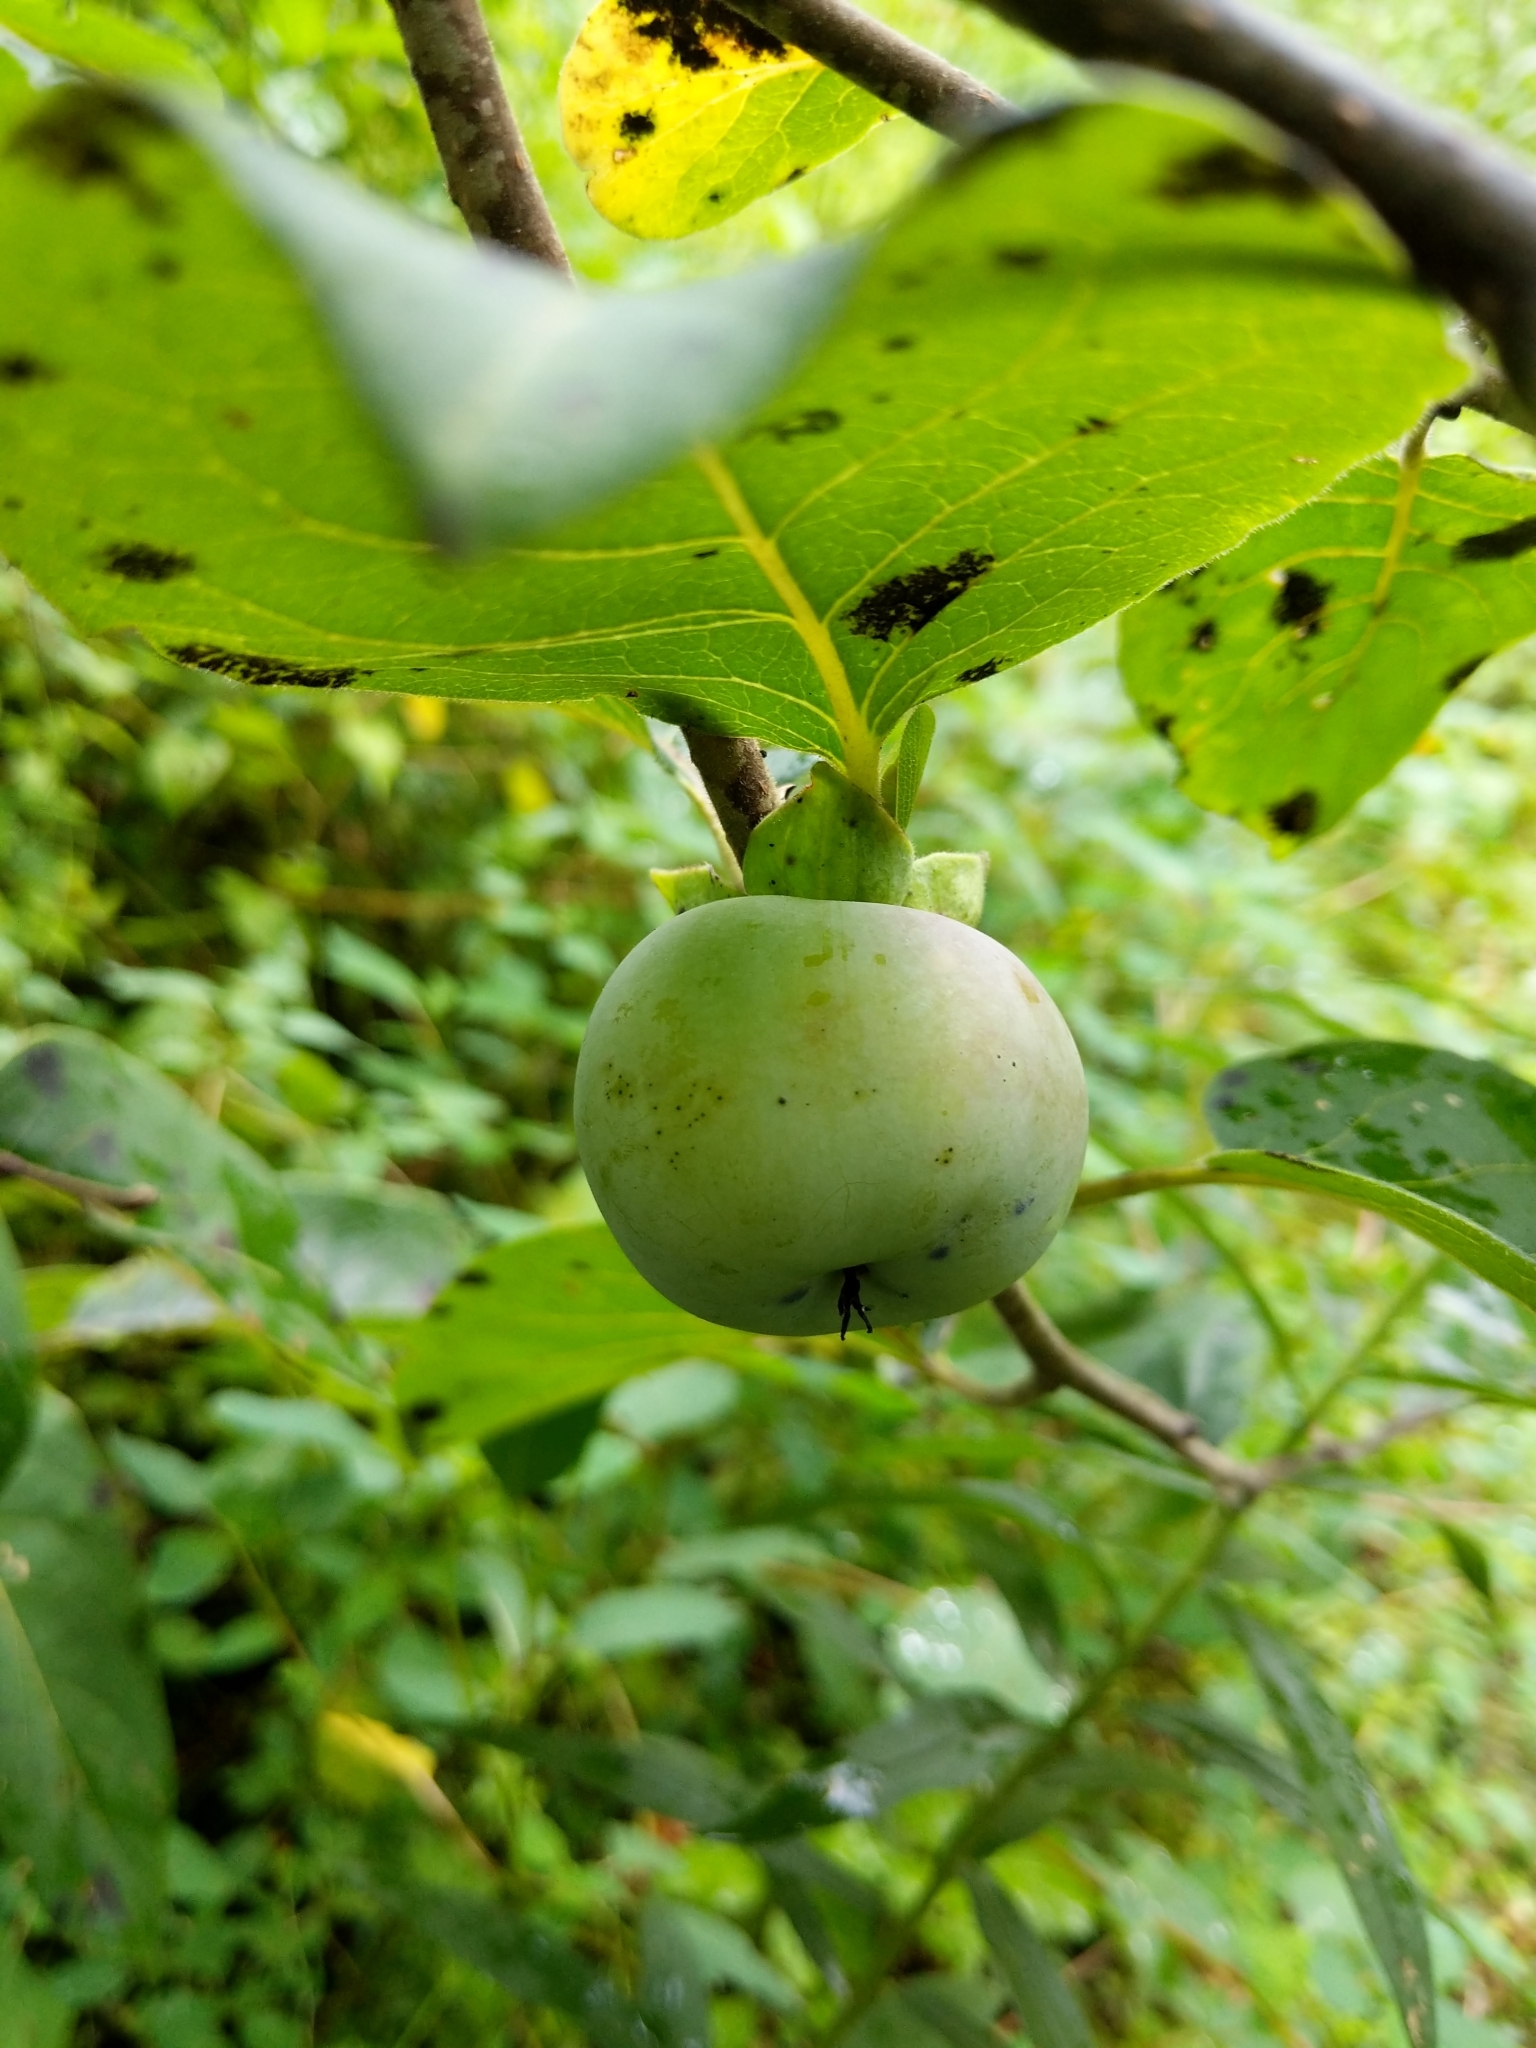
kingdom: Plantae
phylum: Tracheophyta
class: Magnoliopsida
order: Ericales
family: Ebenaceae
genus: Diospyros
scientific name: Diospyros virginiana
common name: Persimmon
